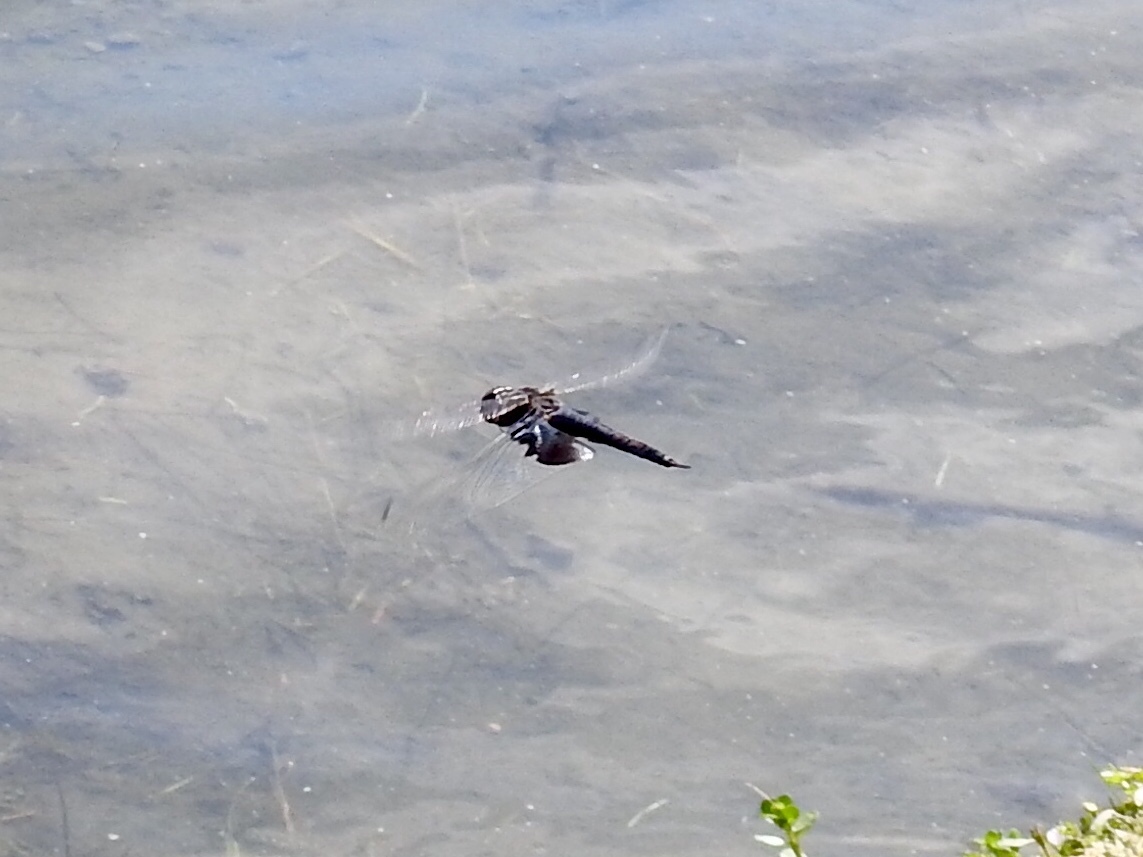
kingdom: Animalia
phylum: Arthropoda
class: Insecta
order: Odonata
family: Libellulidae
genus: Tramea
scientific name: Tramea lacerata
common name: Black saddlebags
